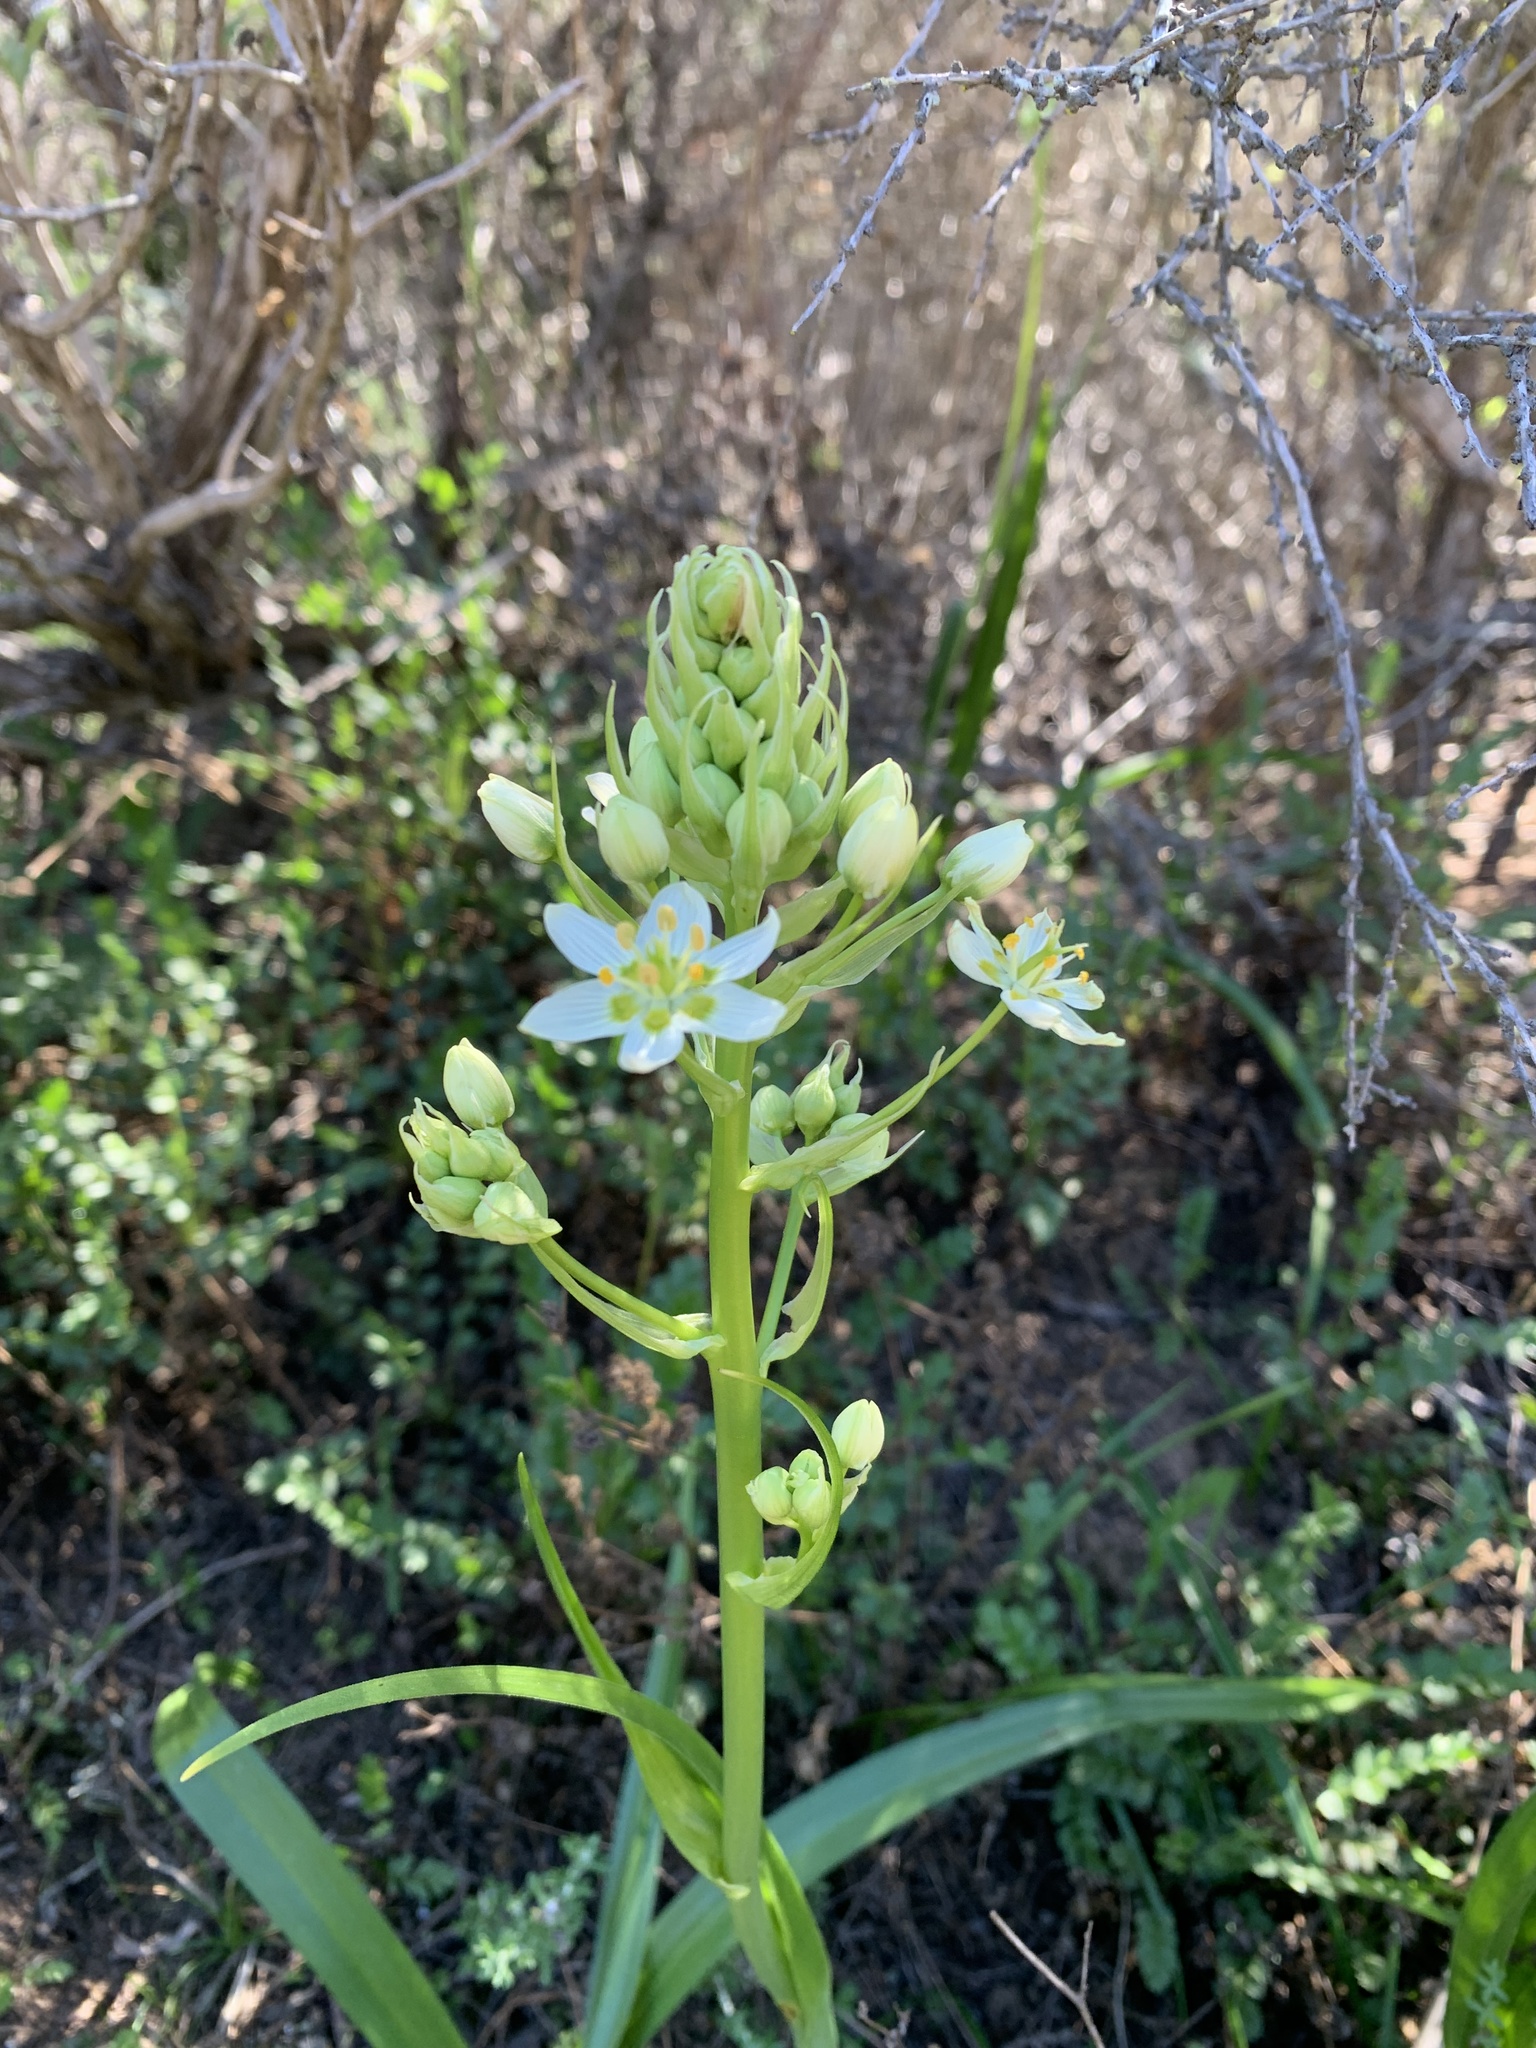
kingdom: Plantae
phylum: Tracheophyta
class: Liliopsida
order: Liliales
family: Melanthiaceae
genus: Toxicoscordion
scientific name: Toxicoscordion fremontii
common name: Fremont's death camas
